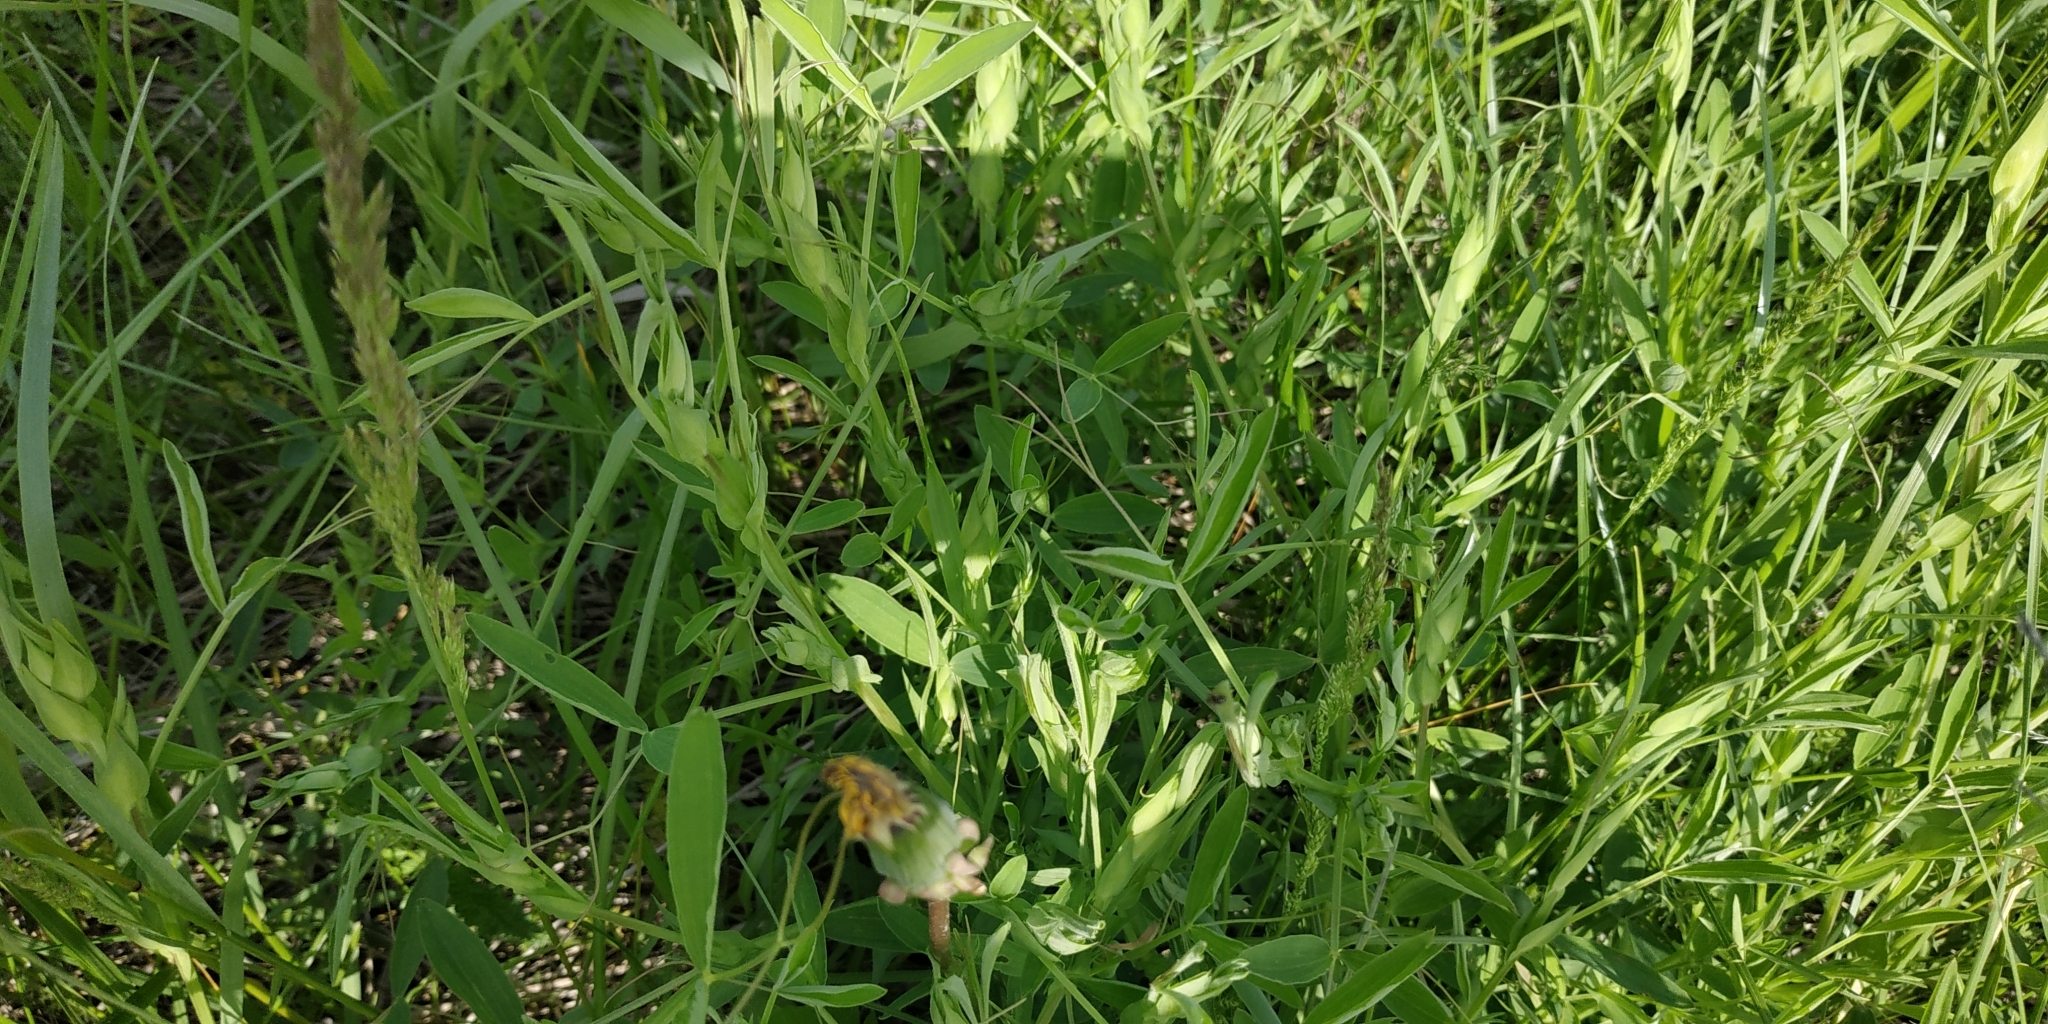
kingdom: Plantae
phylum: Tracheophyta
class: Magnoliopsida
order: Fabales
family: Fabaceae
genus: Lathyrus
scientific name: Lathyrus pratensis
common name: Meadow vetchling
